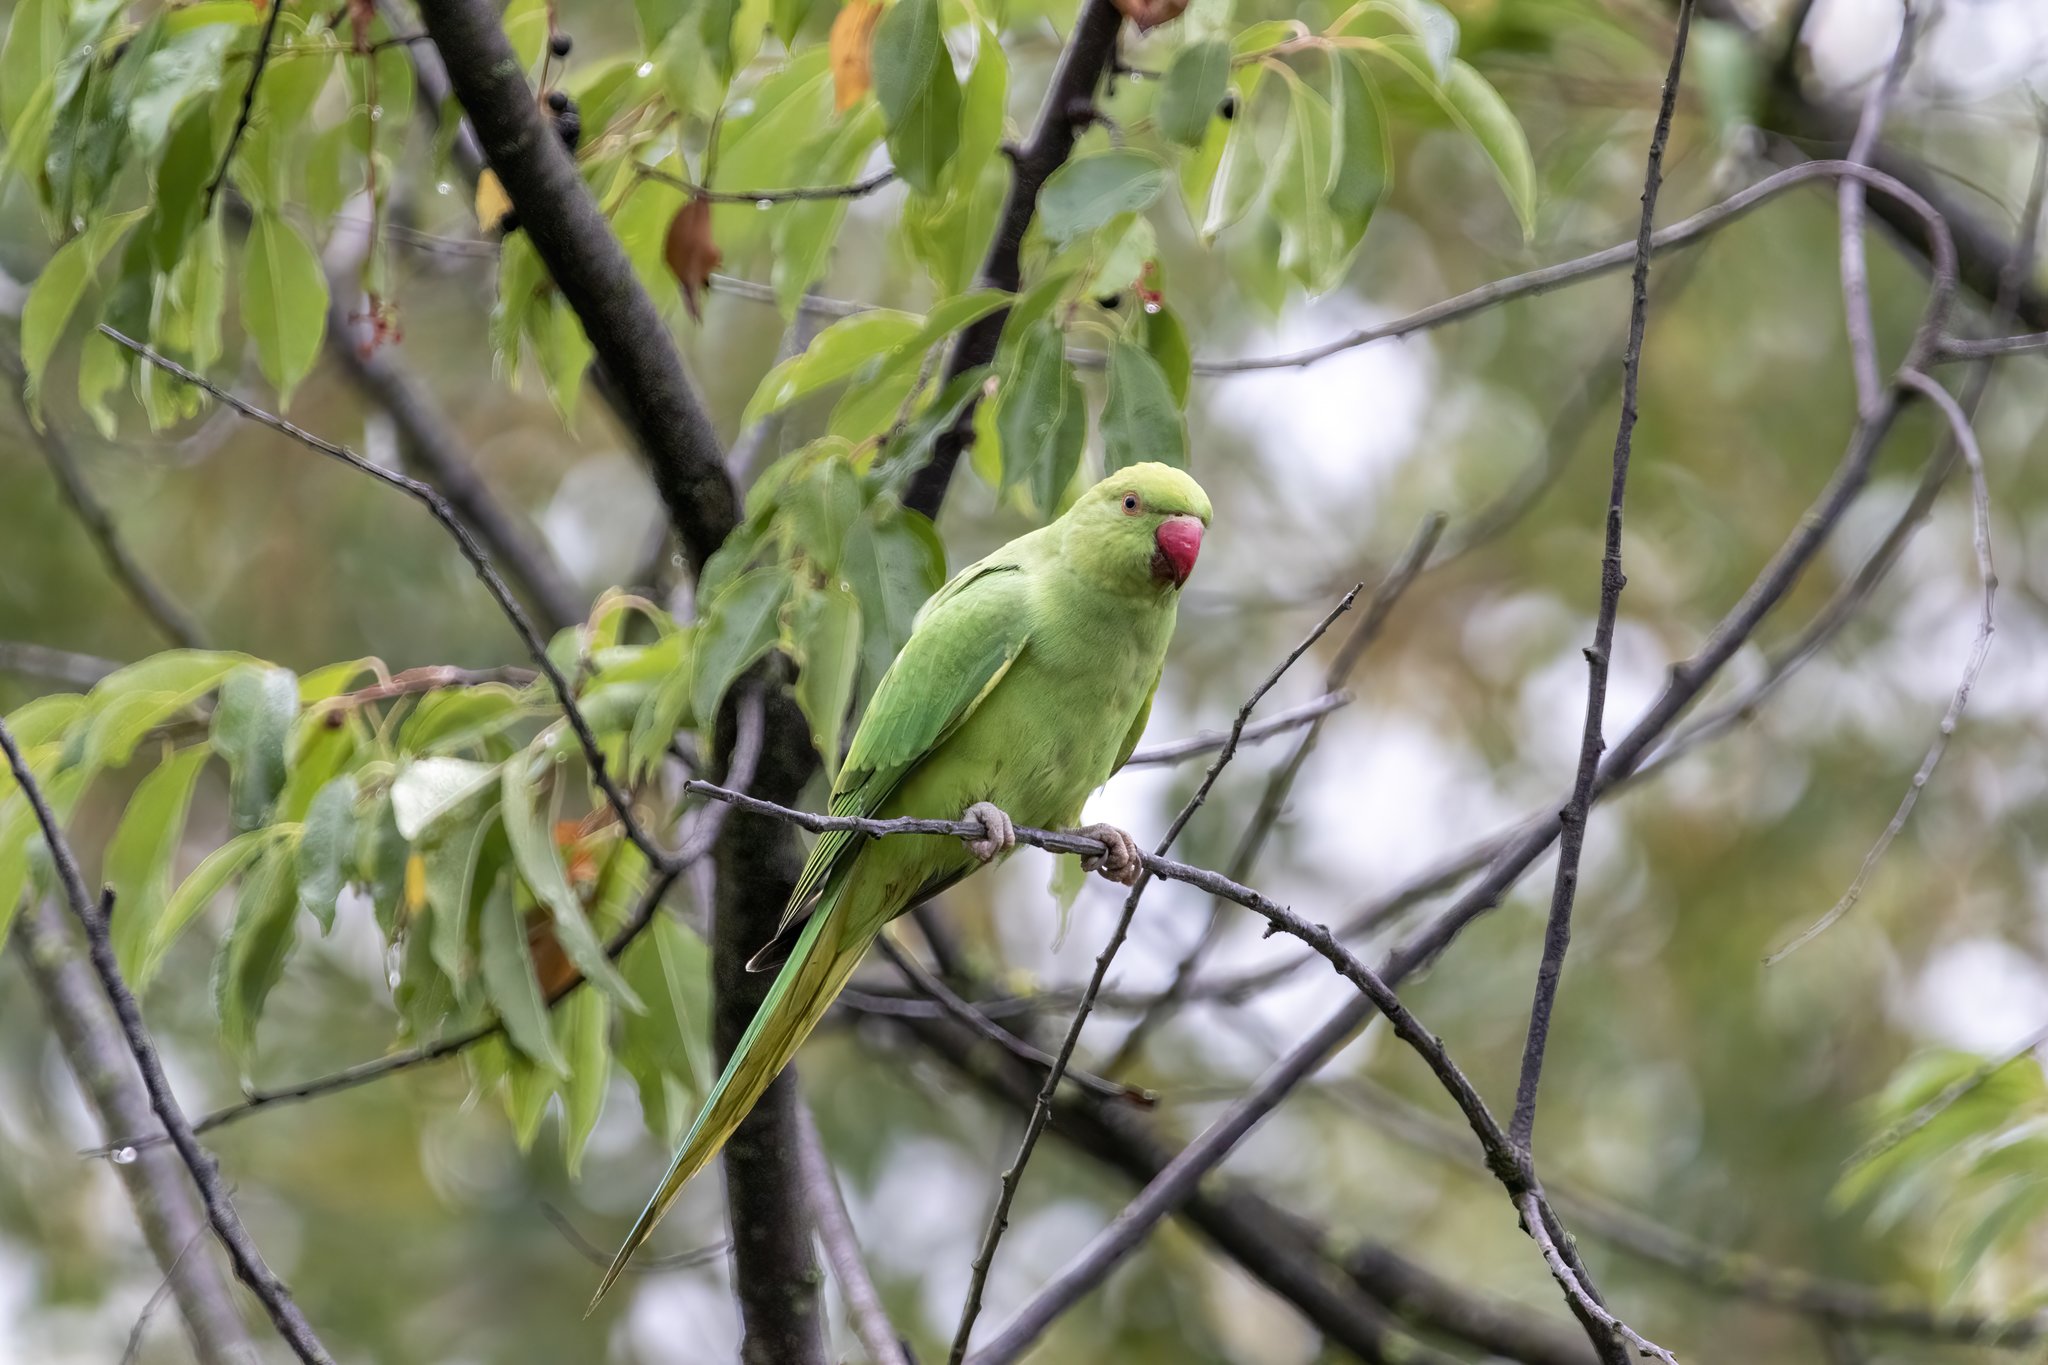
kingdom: Animalia
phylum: Chordata
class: Aves
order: Psittaciformes
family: Psittacidae
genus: Psittacula
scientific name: Psittacula krameri
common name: Rose-ringed parakeet
